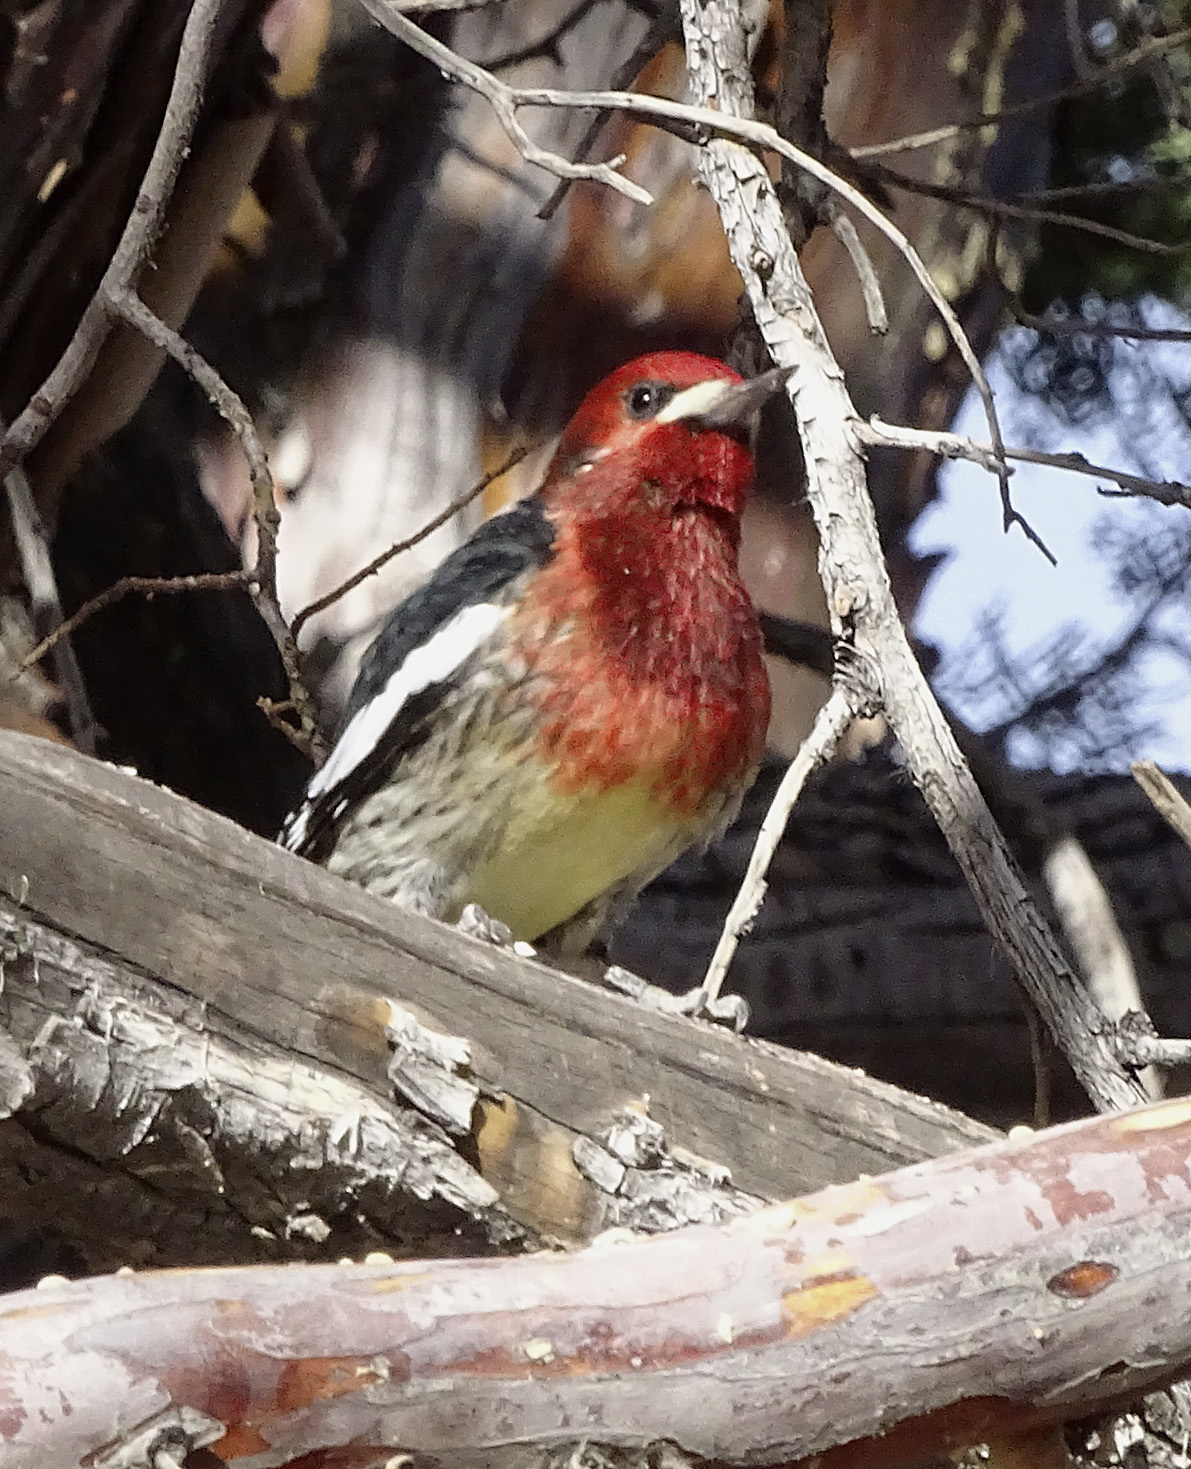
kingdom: Animalia
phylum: Chordata
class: Aves
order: Piciformes
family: Picidae
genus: Sphyrapicus
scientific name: Sphyrapicus ruber
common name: Red-breasted sapsucker
